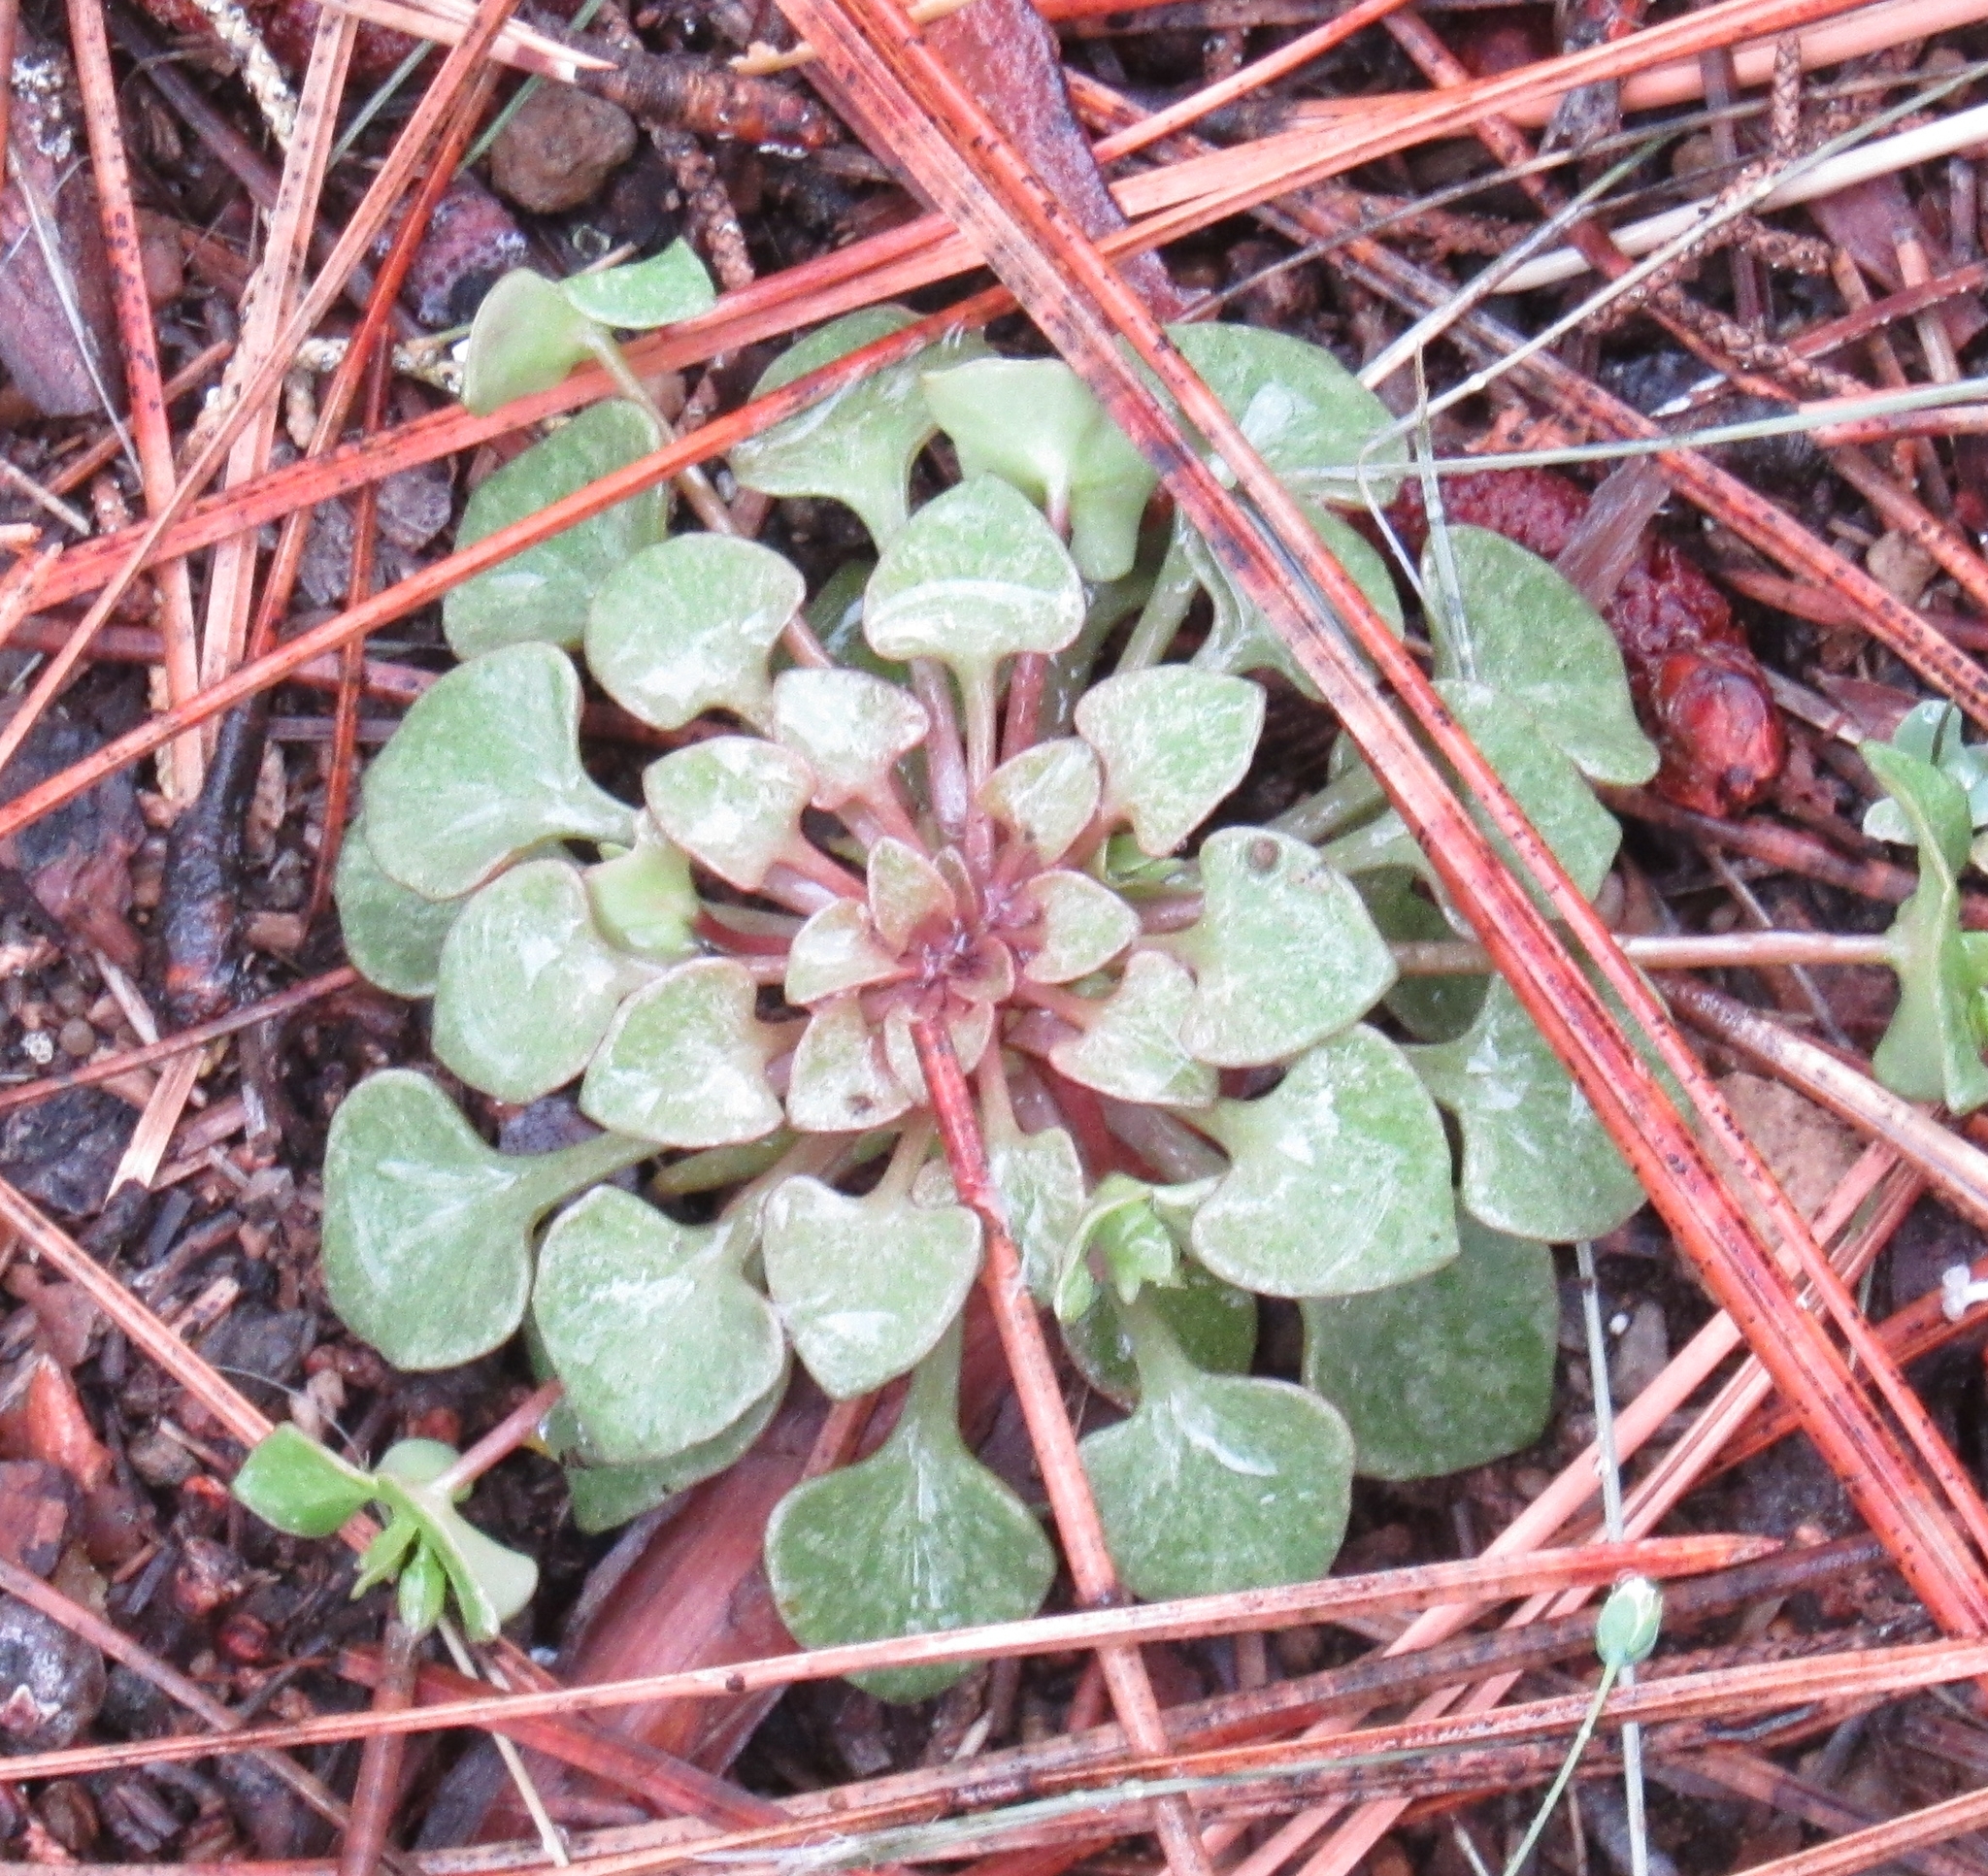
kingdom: Plantae
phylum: Tracheophyta
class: Magnoliopsida
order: Caryophyllales
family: Montiaceae
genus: Claytonia
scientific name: Claytonia rubra
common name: Erubescent miner's-lettuce
